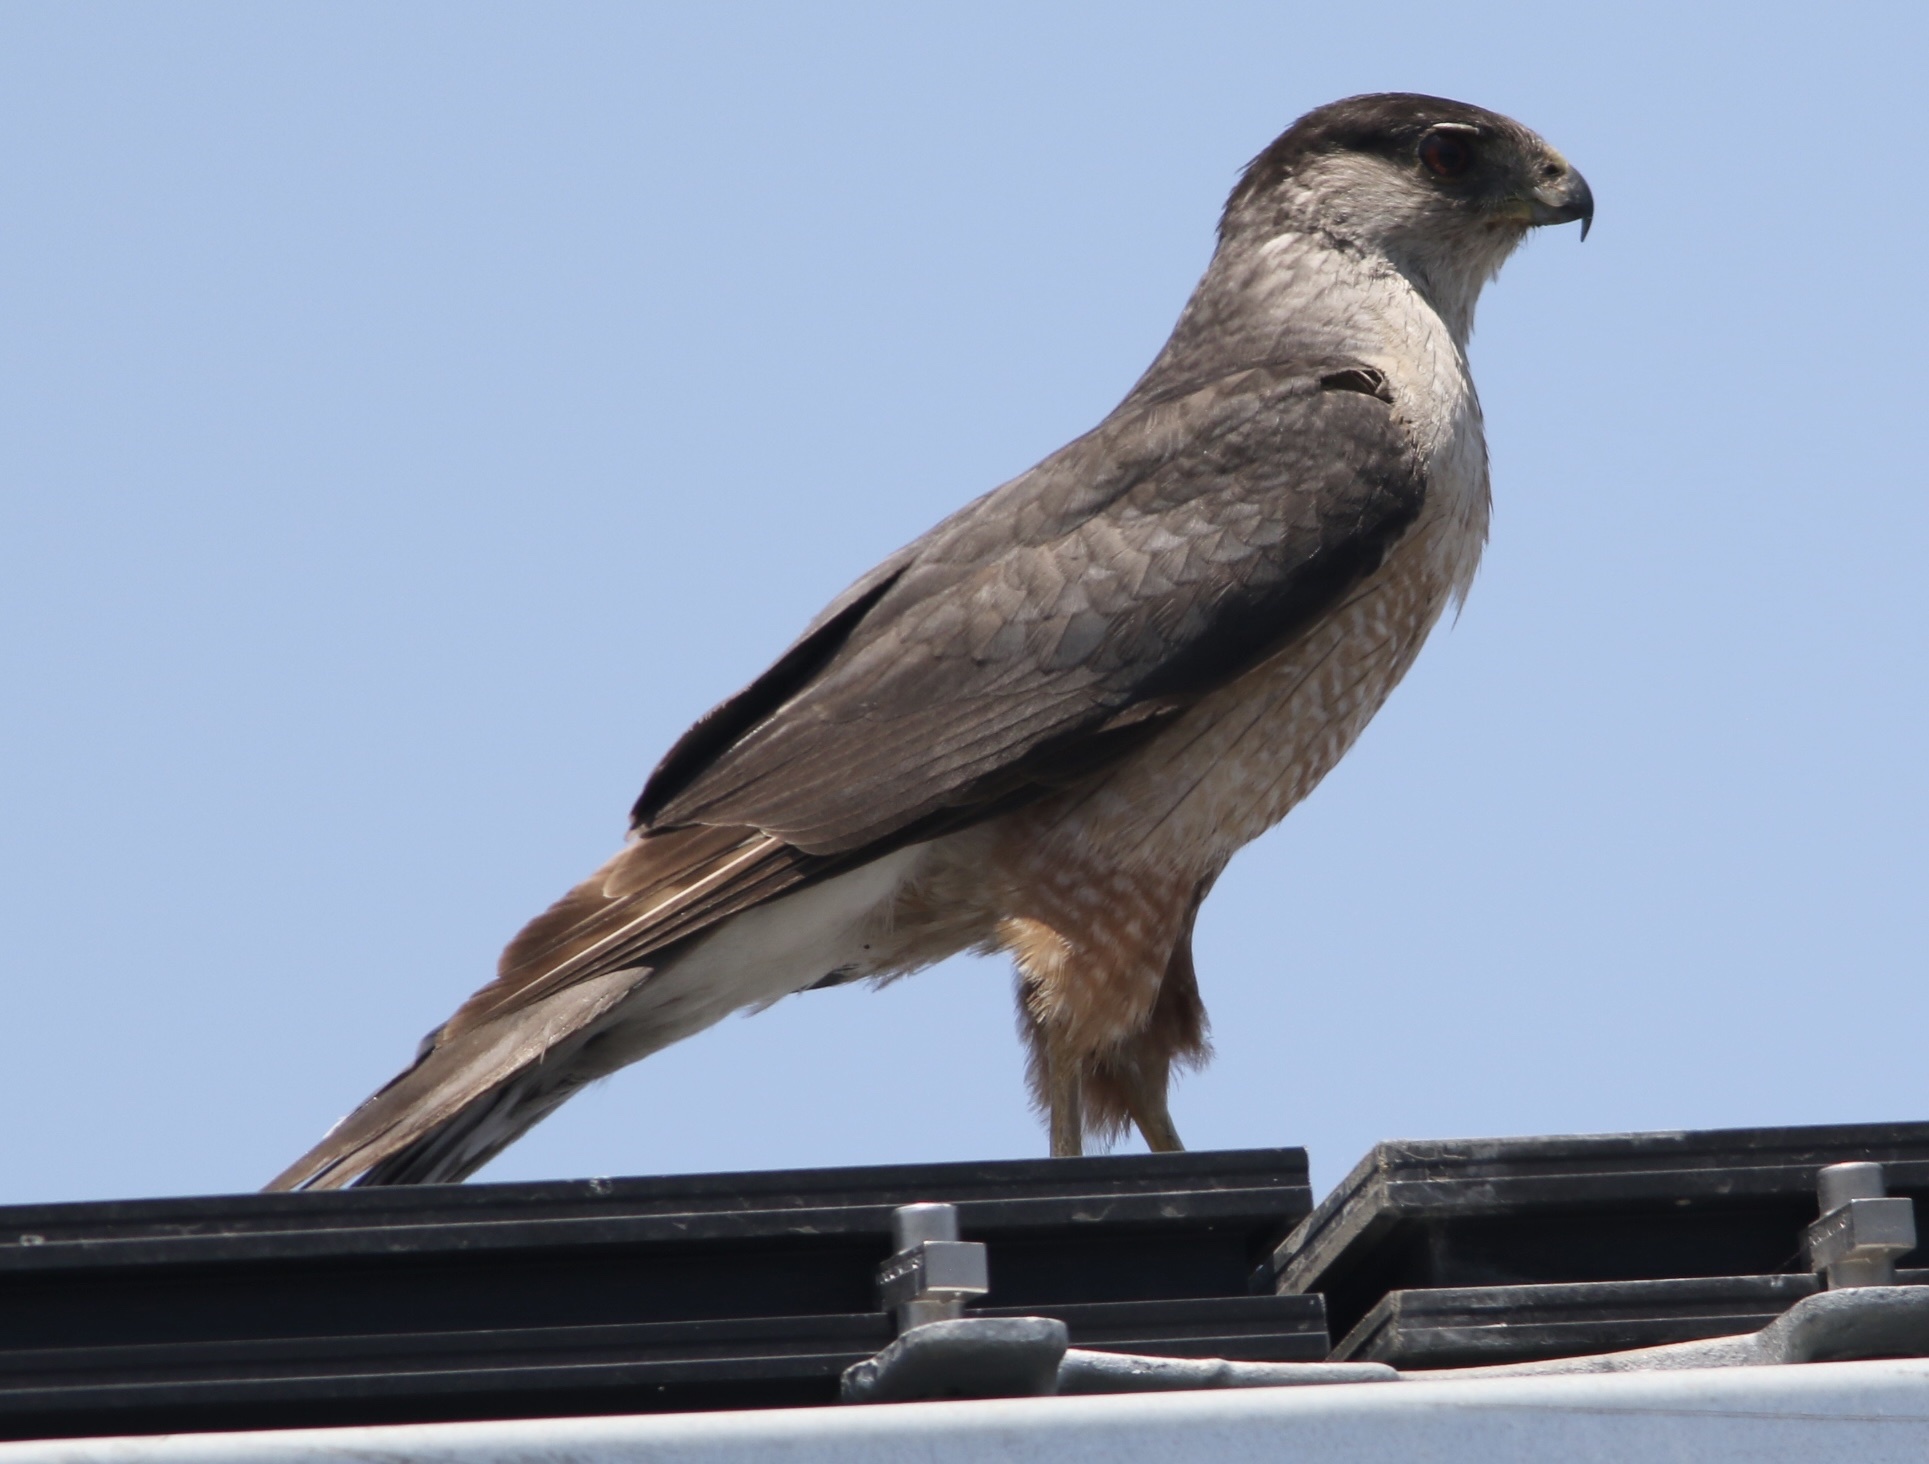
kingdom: Animalia
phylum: Chordata
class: Aves
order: Accipitriformes
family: Accipitridae
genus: Accipiter
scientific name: Accipiter cooperii
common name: Cooper's hawk
